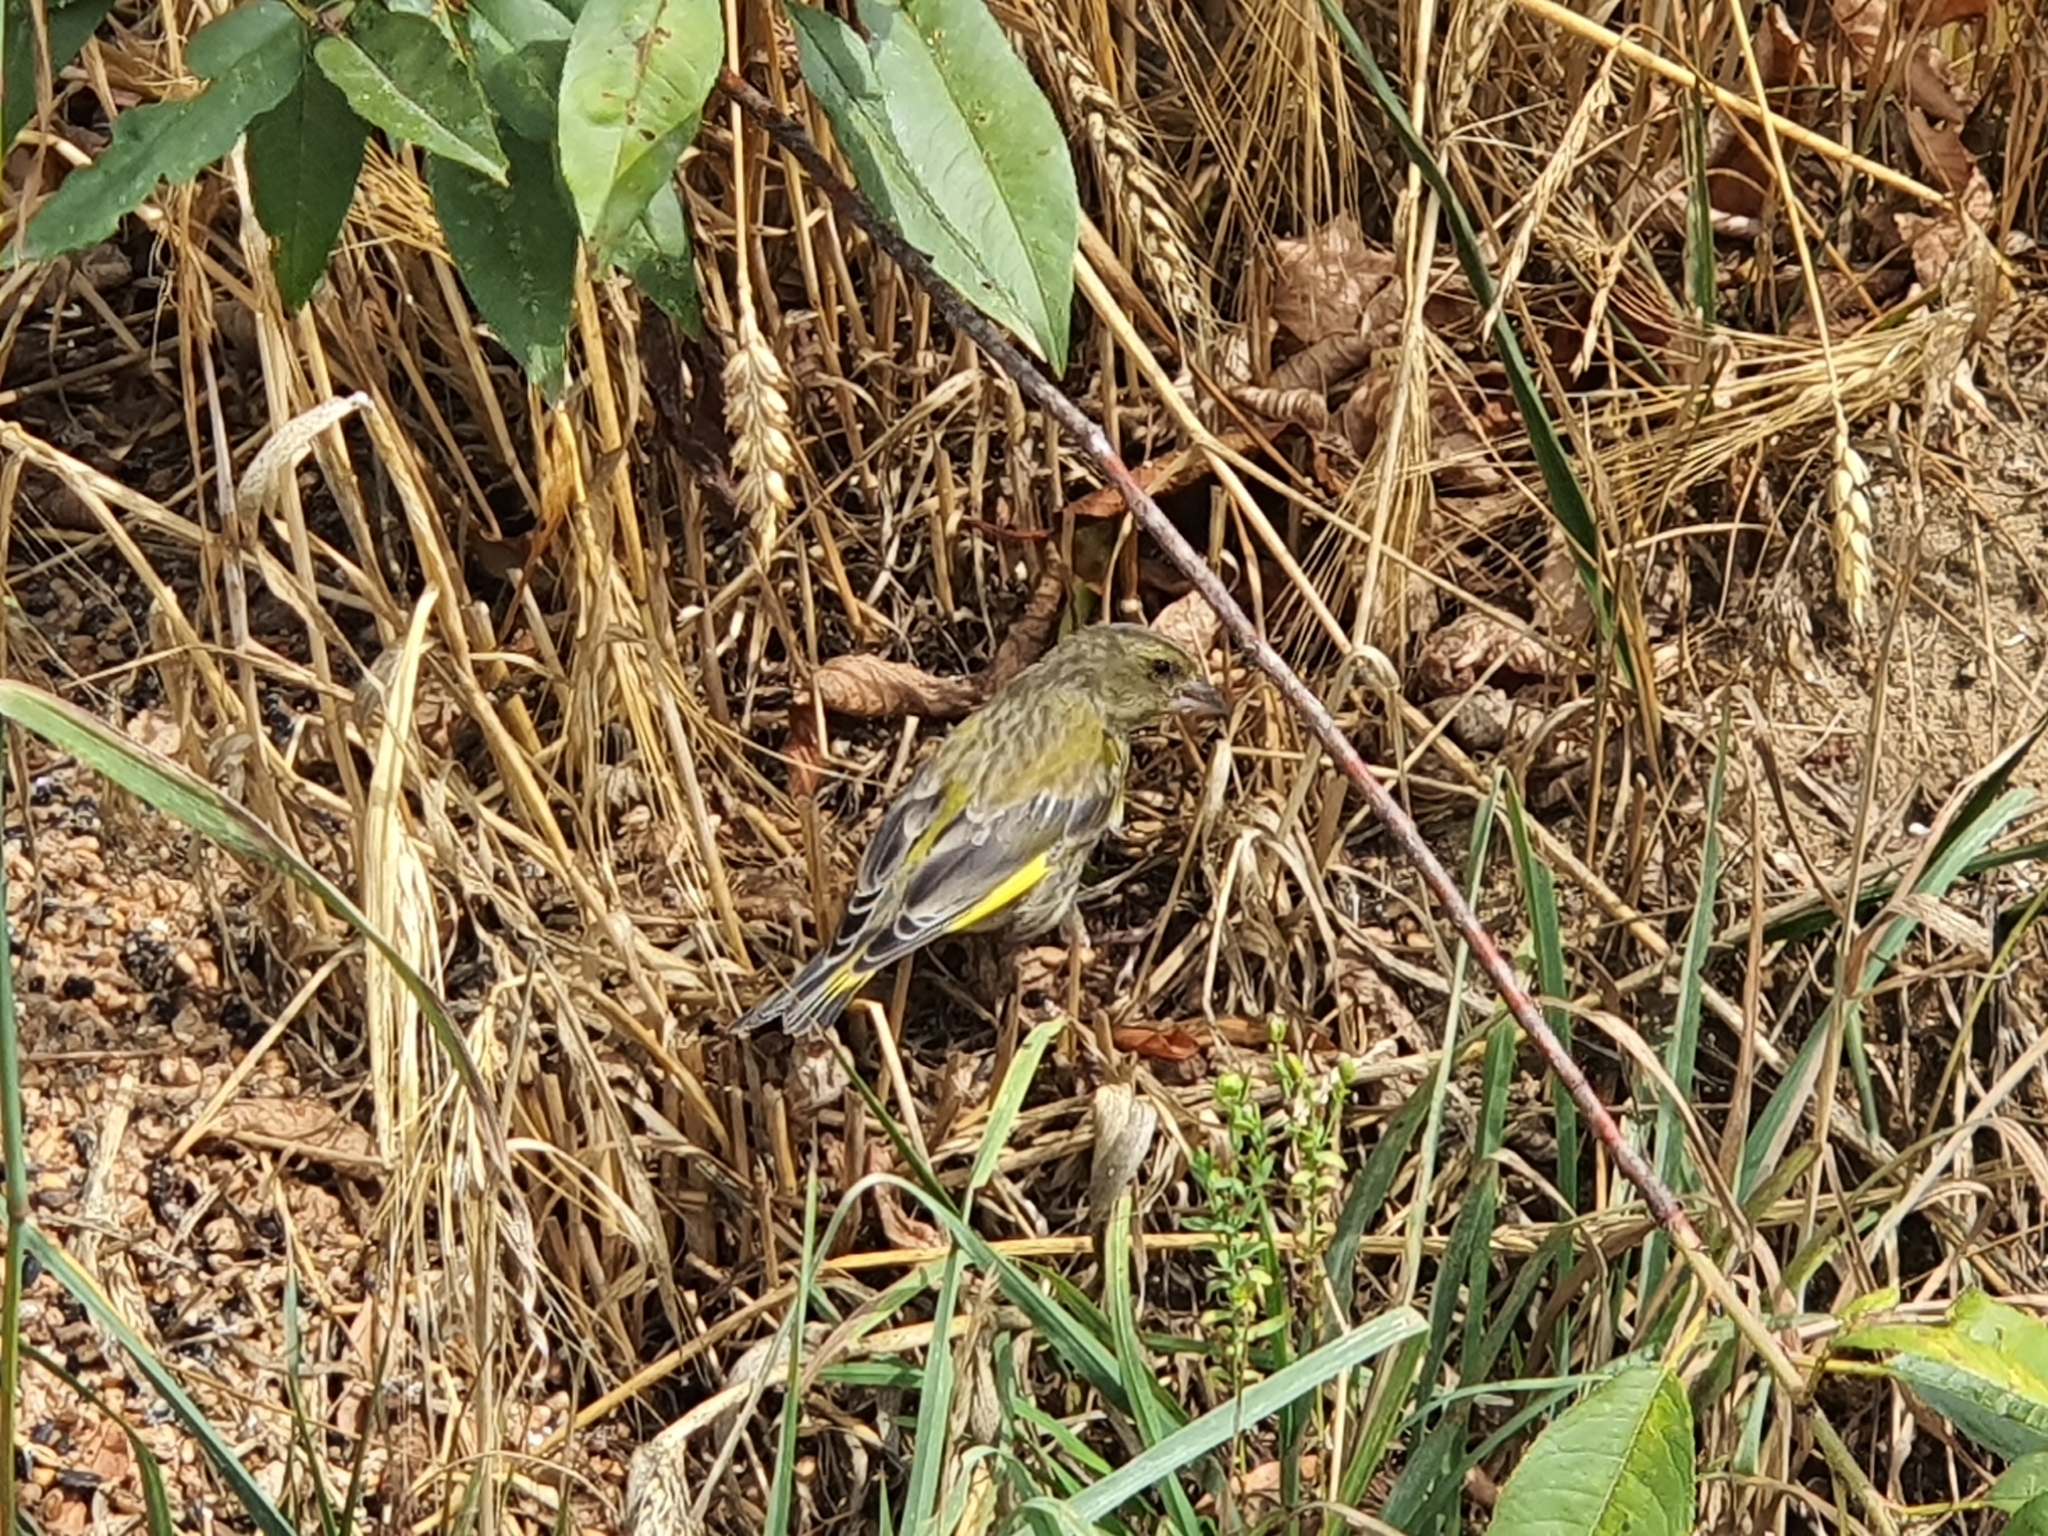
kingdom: Plantae
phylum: Tracheophyta
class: Liliopsida
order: Poales
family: Poaceae
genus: Chloris
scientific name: Chloris chloris
